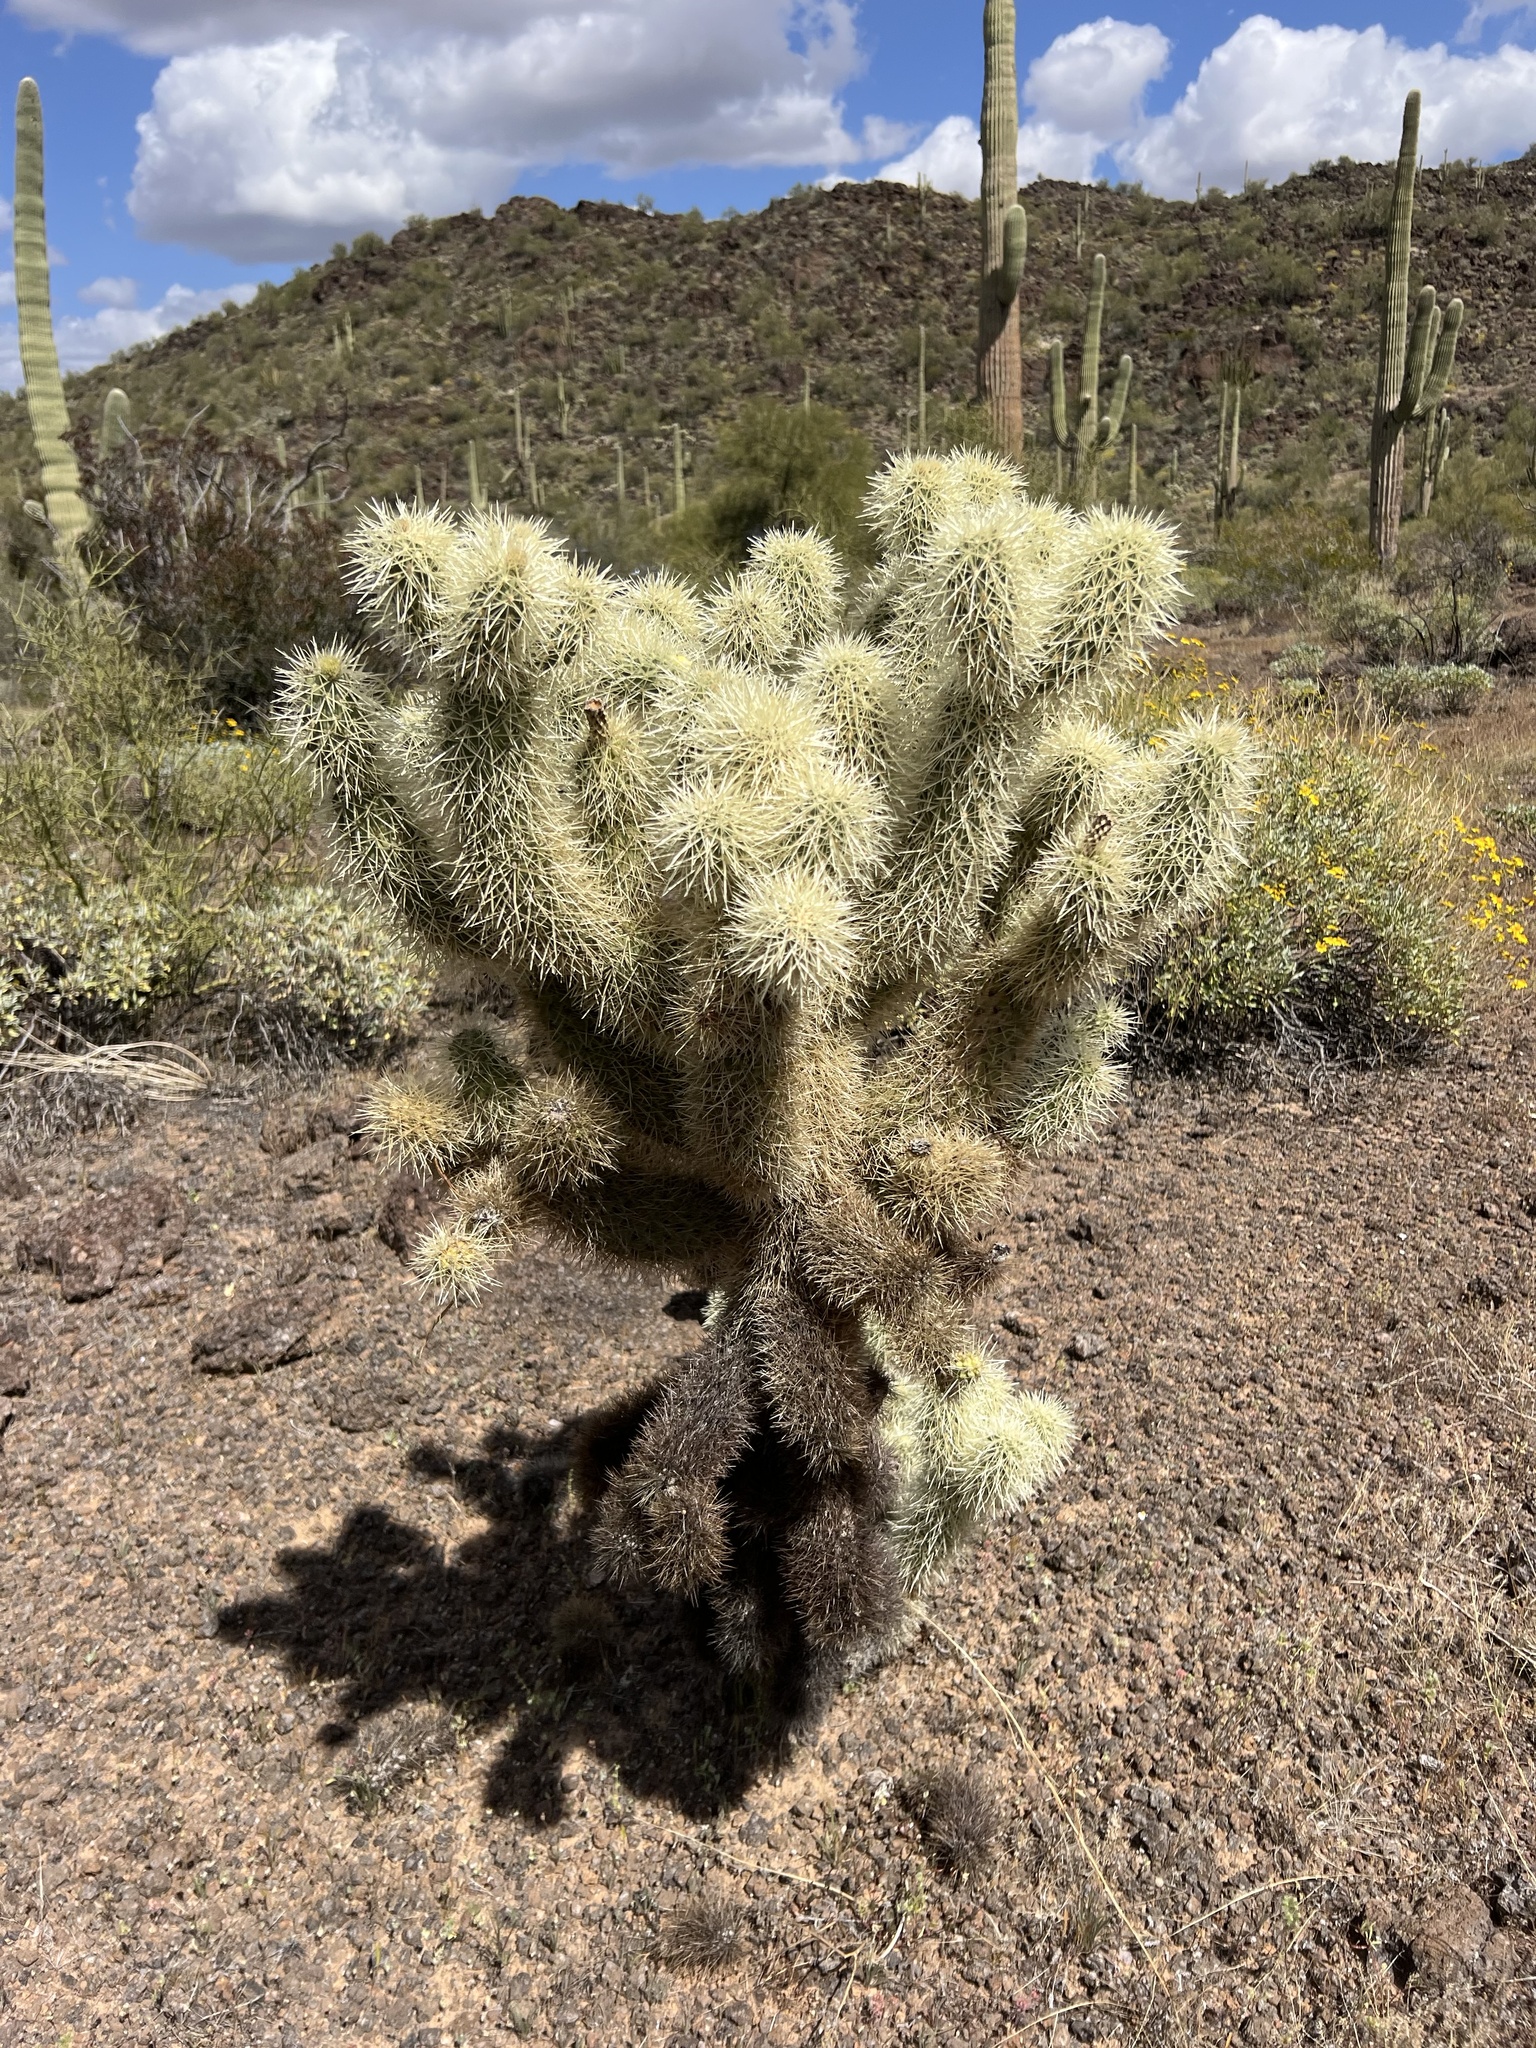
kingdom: Plantae
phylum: Tracheophyta
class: Magnoliopsida
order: Caryophyllales
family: Cactaceae
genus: Cylindropuntia
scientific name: Cylindropuntia fosbergii
